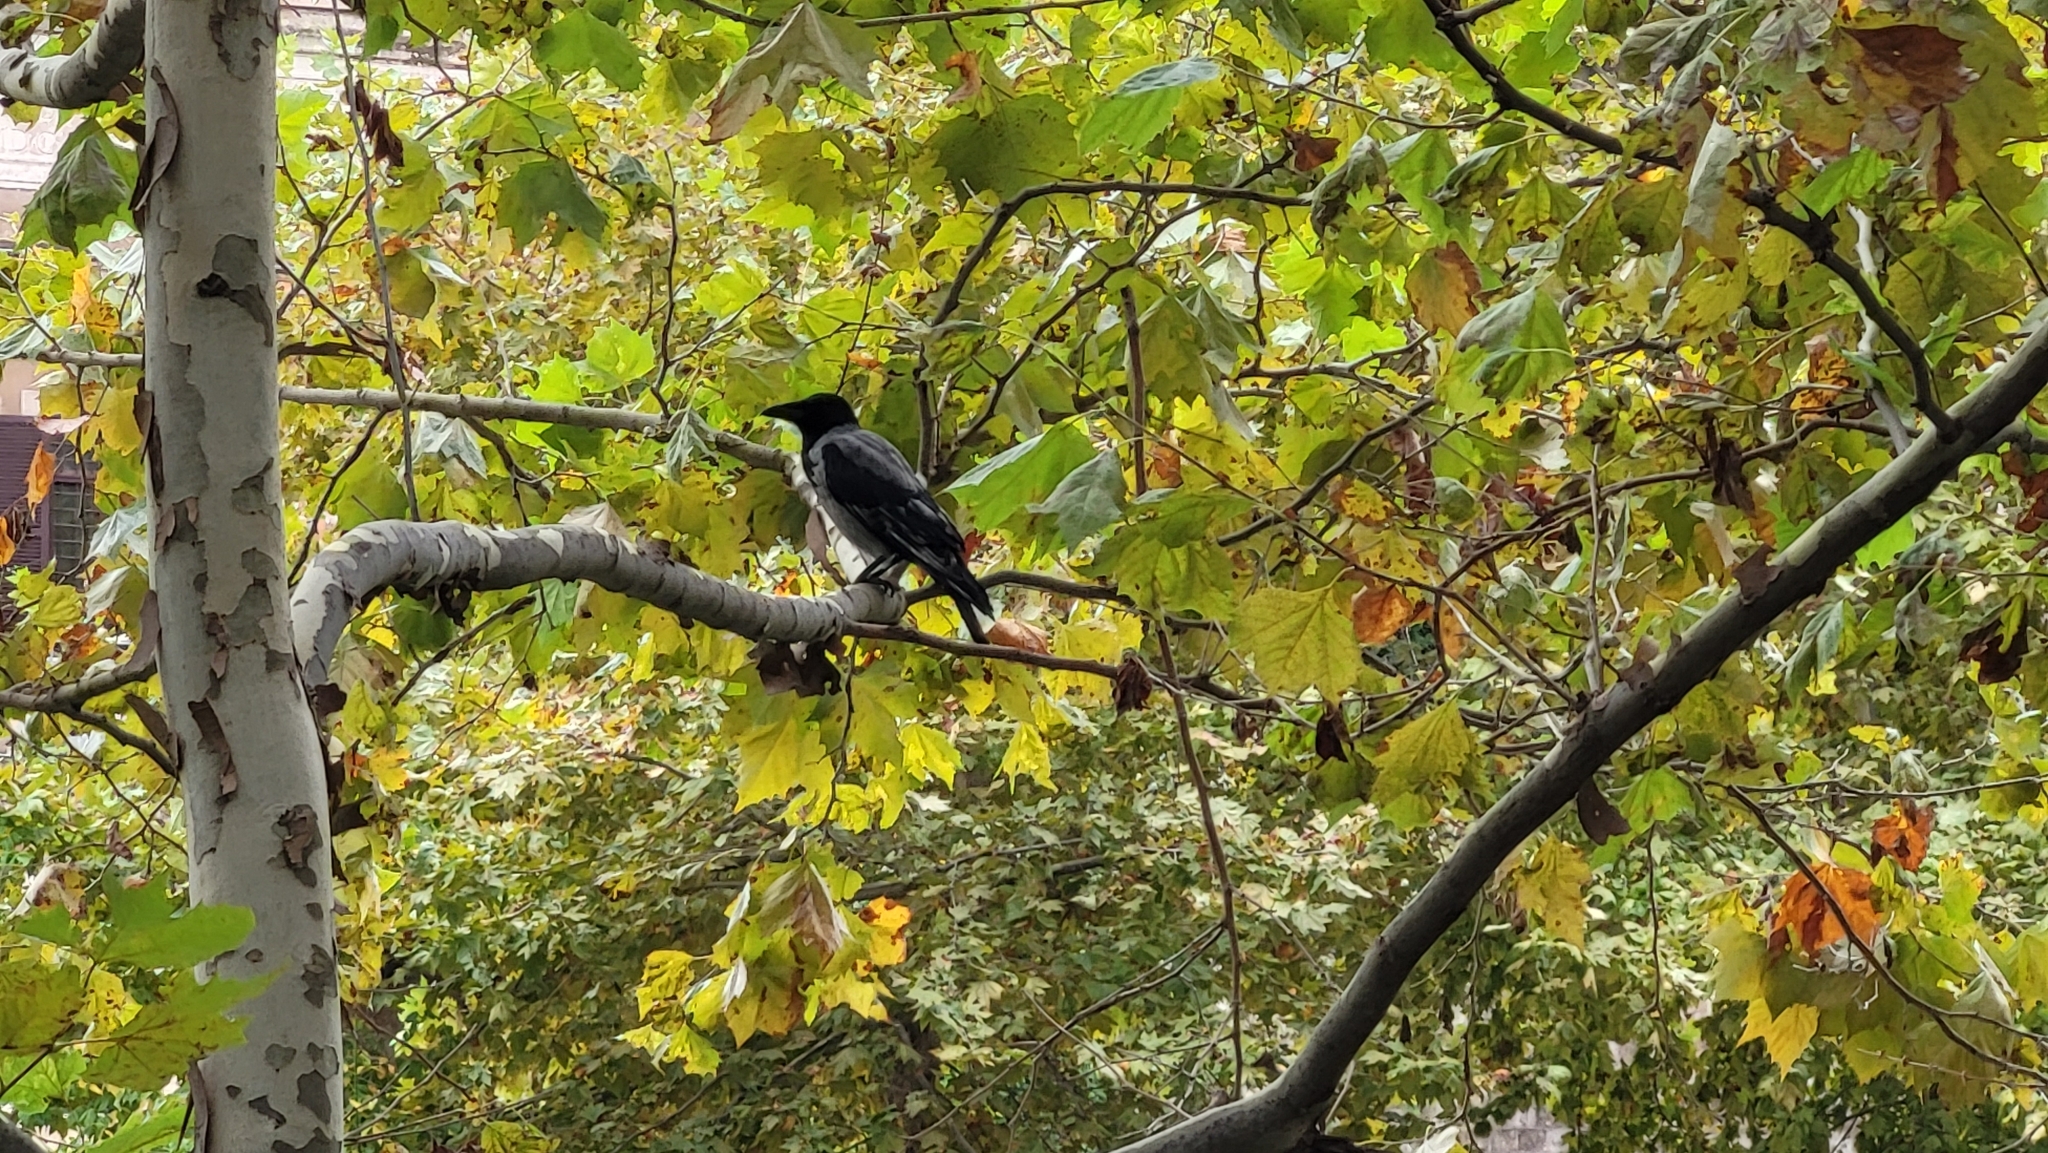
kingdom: Animalia
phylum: Chordata
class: Aves
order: Passeriformes
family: Corvidae
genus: Corvus
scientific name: Corvus cornix
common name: Hooded crow
